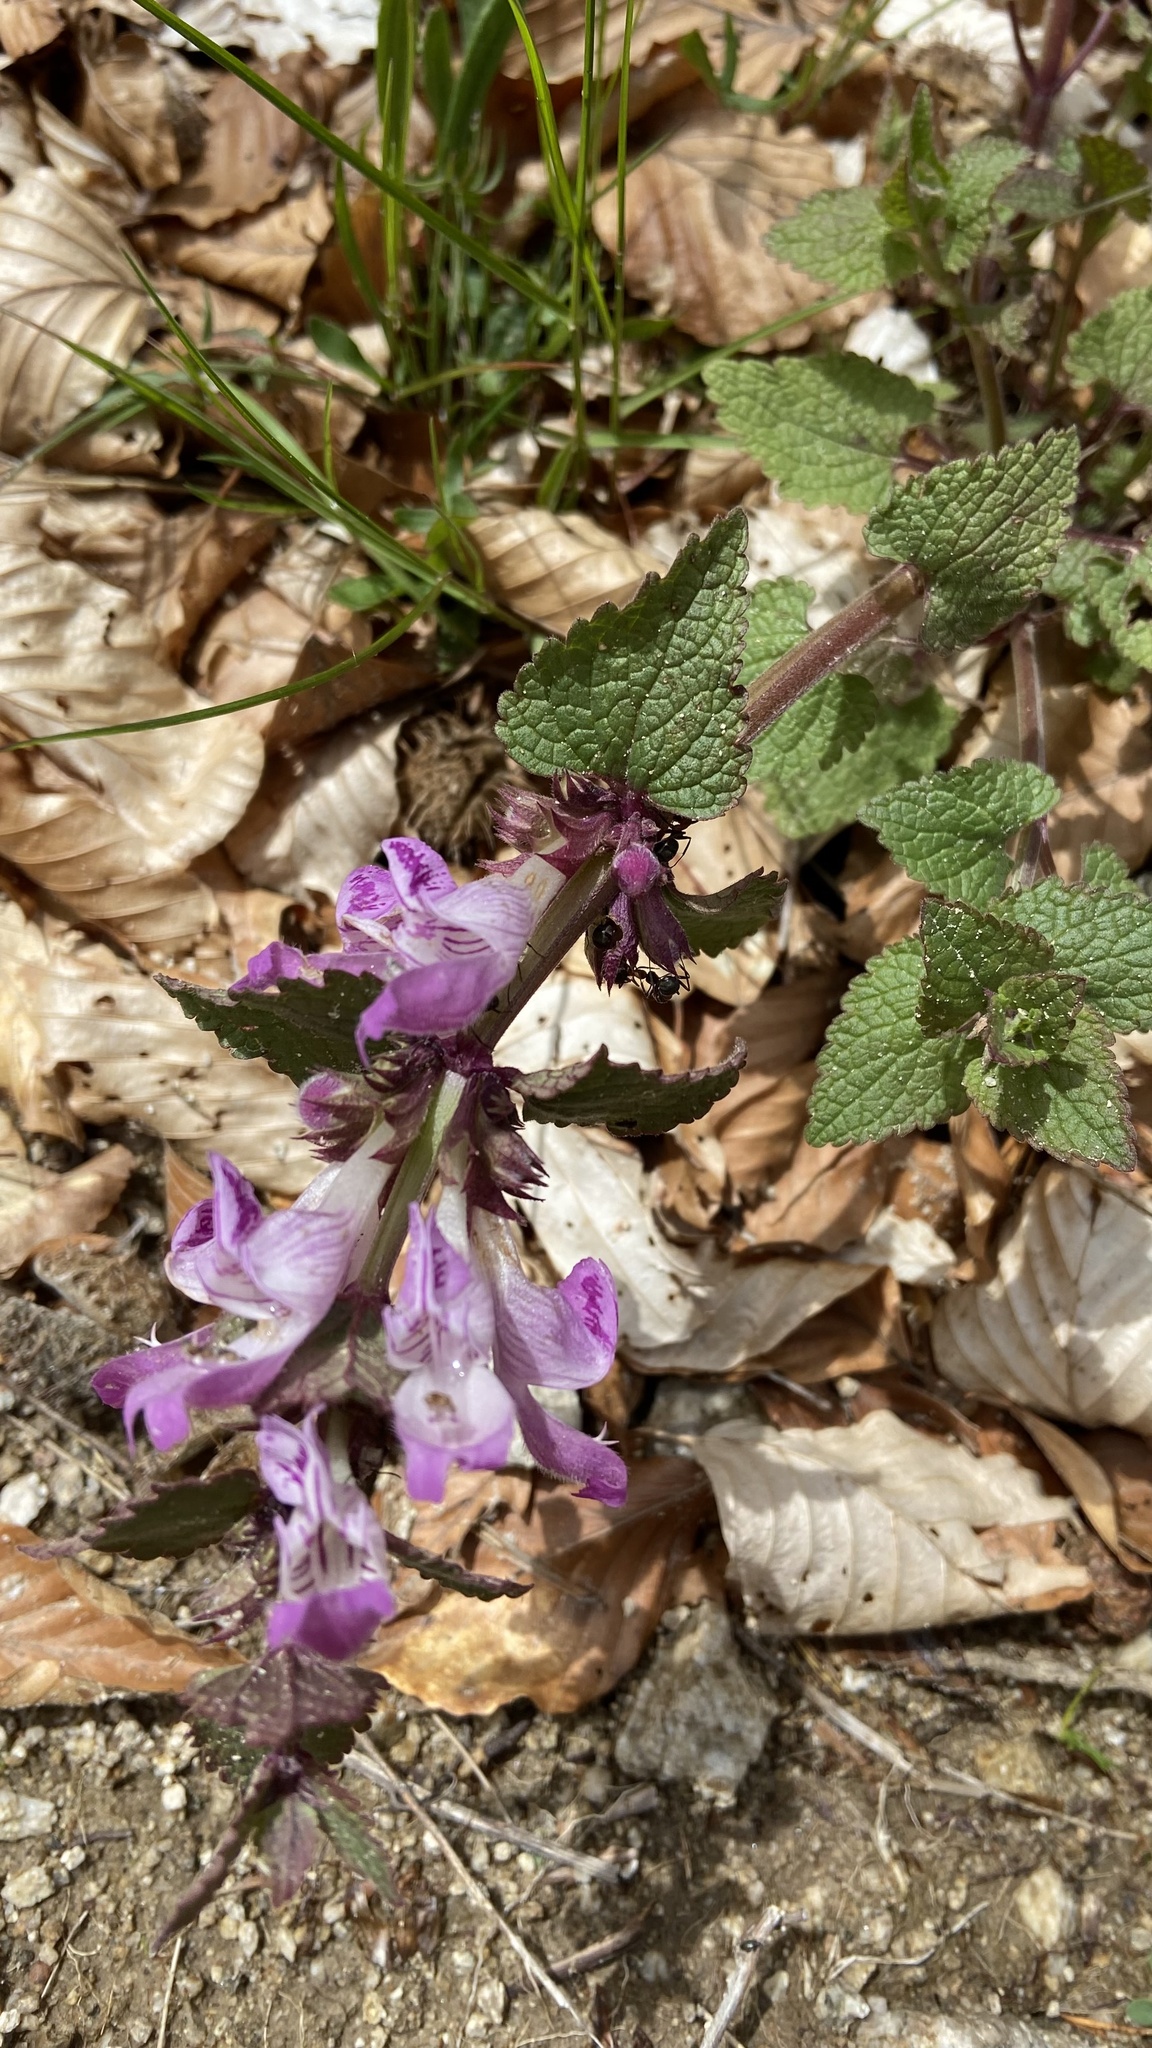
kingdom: Plantae
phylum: Tracheophyta
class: Magnoliopsida
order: Lamiales
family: Lamiaceae
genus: Lamium
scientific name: Lamium garganicum
